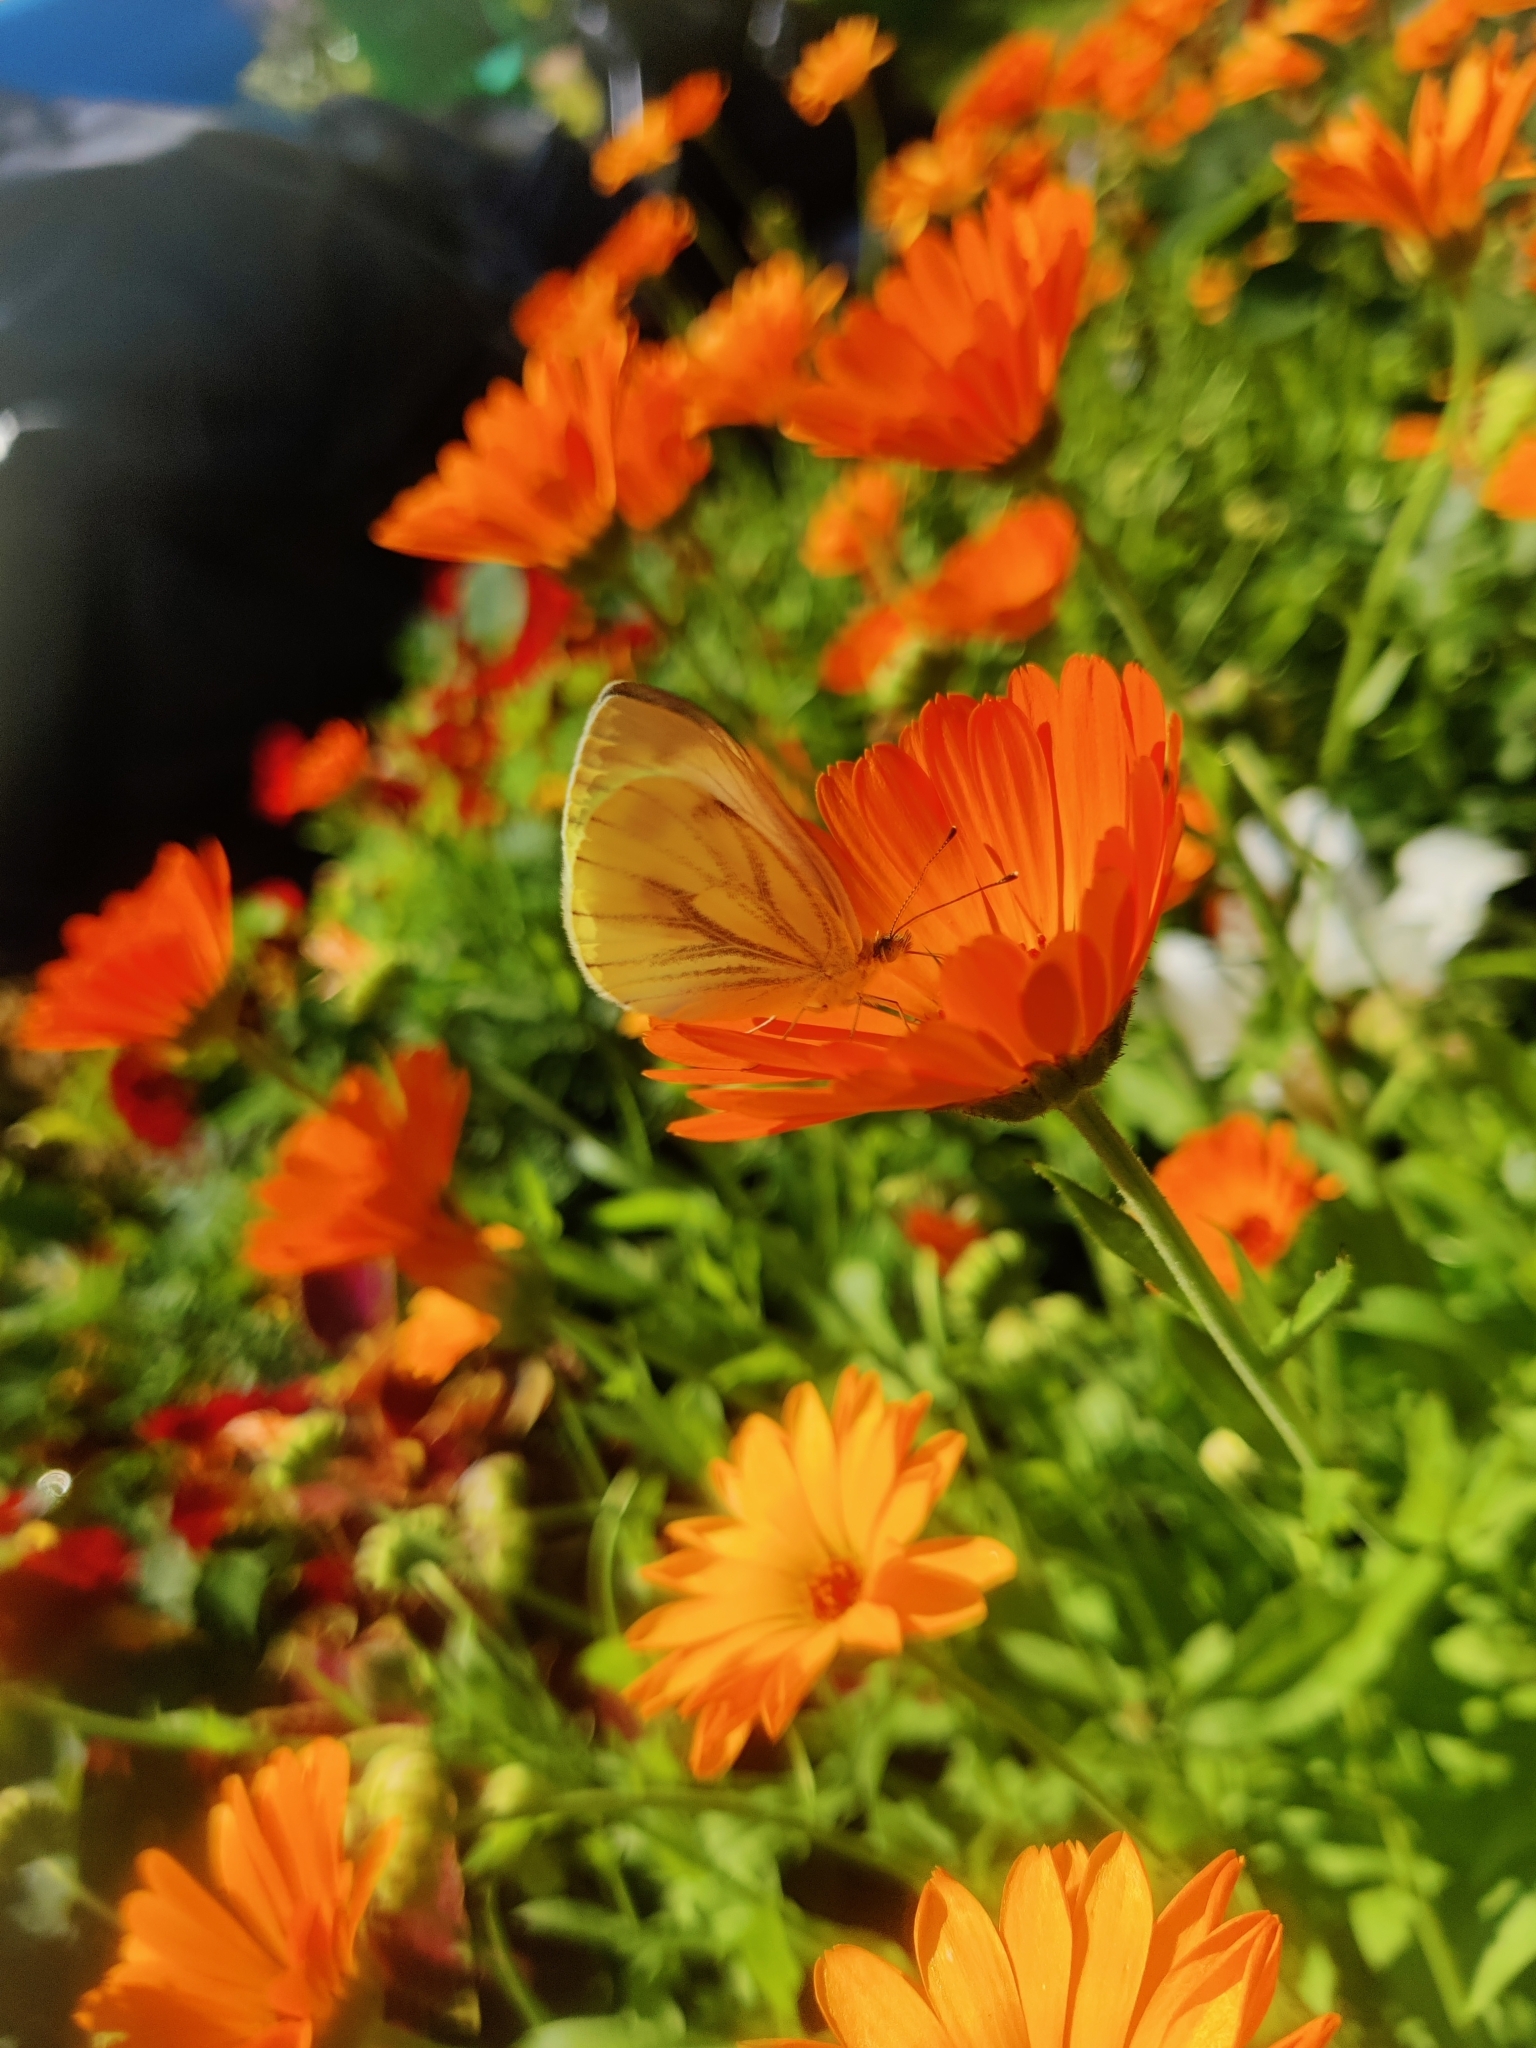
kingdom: Animalia
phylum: Arthropoda
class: Insecta
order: Lepidoptera
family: Pieridae
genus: Pieris
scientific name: Pieris napi
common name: Green-veined white
